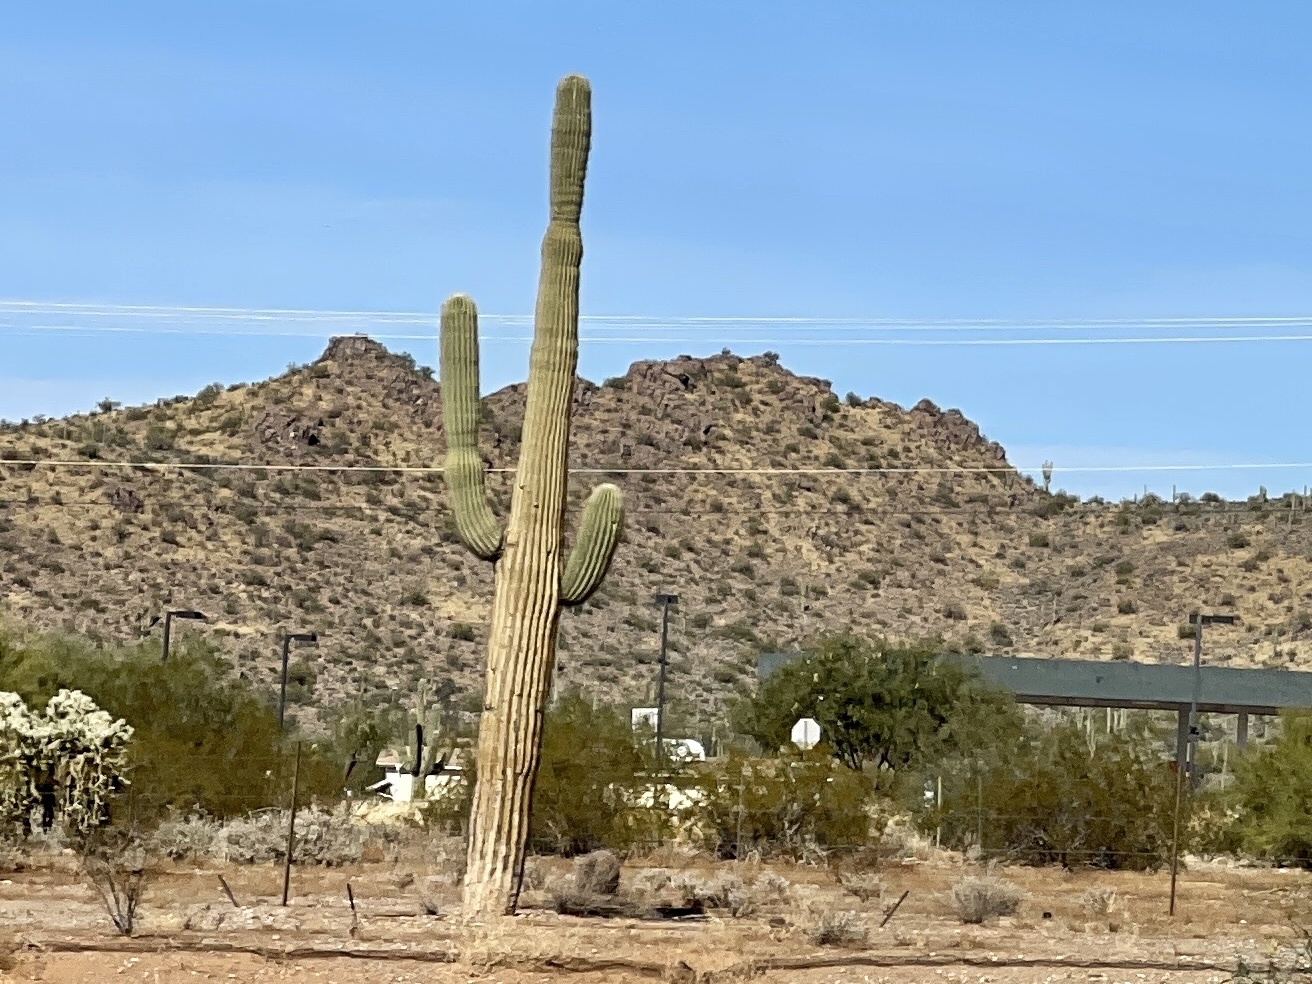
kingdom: Plantae
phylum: Tracheophyta
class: Magnoliopsida
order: Caryophyllales
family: Cactaceae
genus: Carnegiea
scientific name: Carnegiea gigantea
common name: Saguaro
